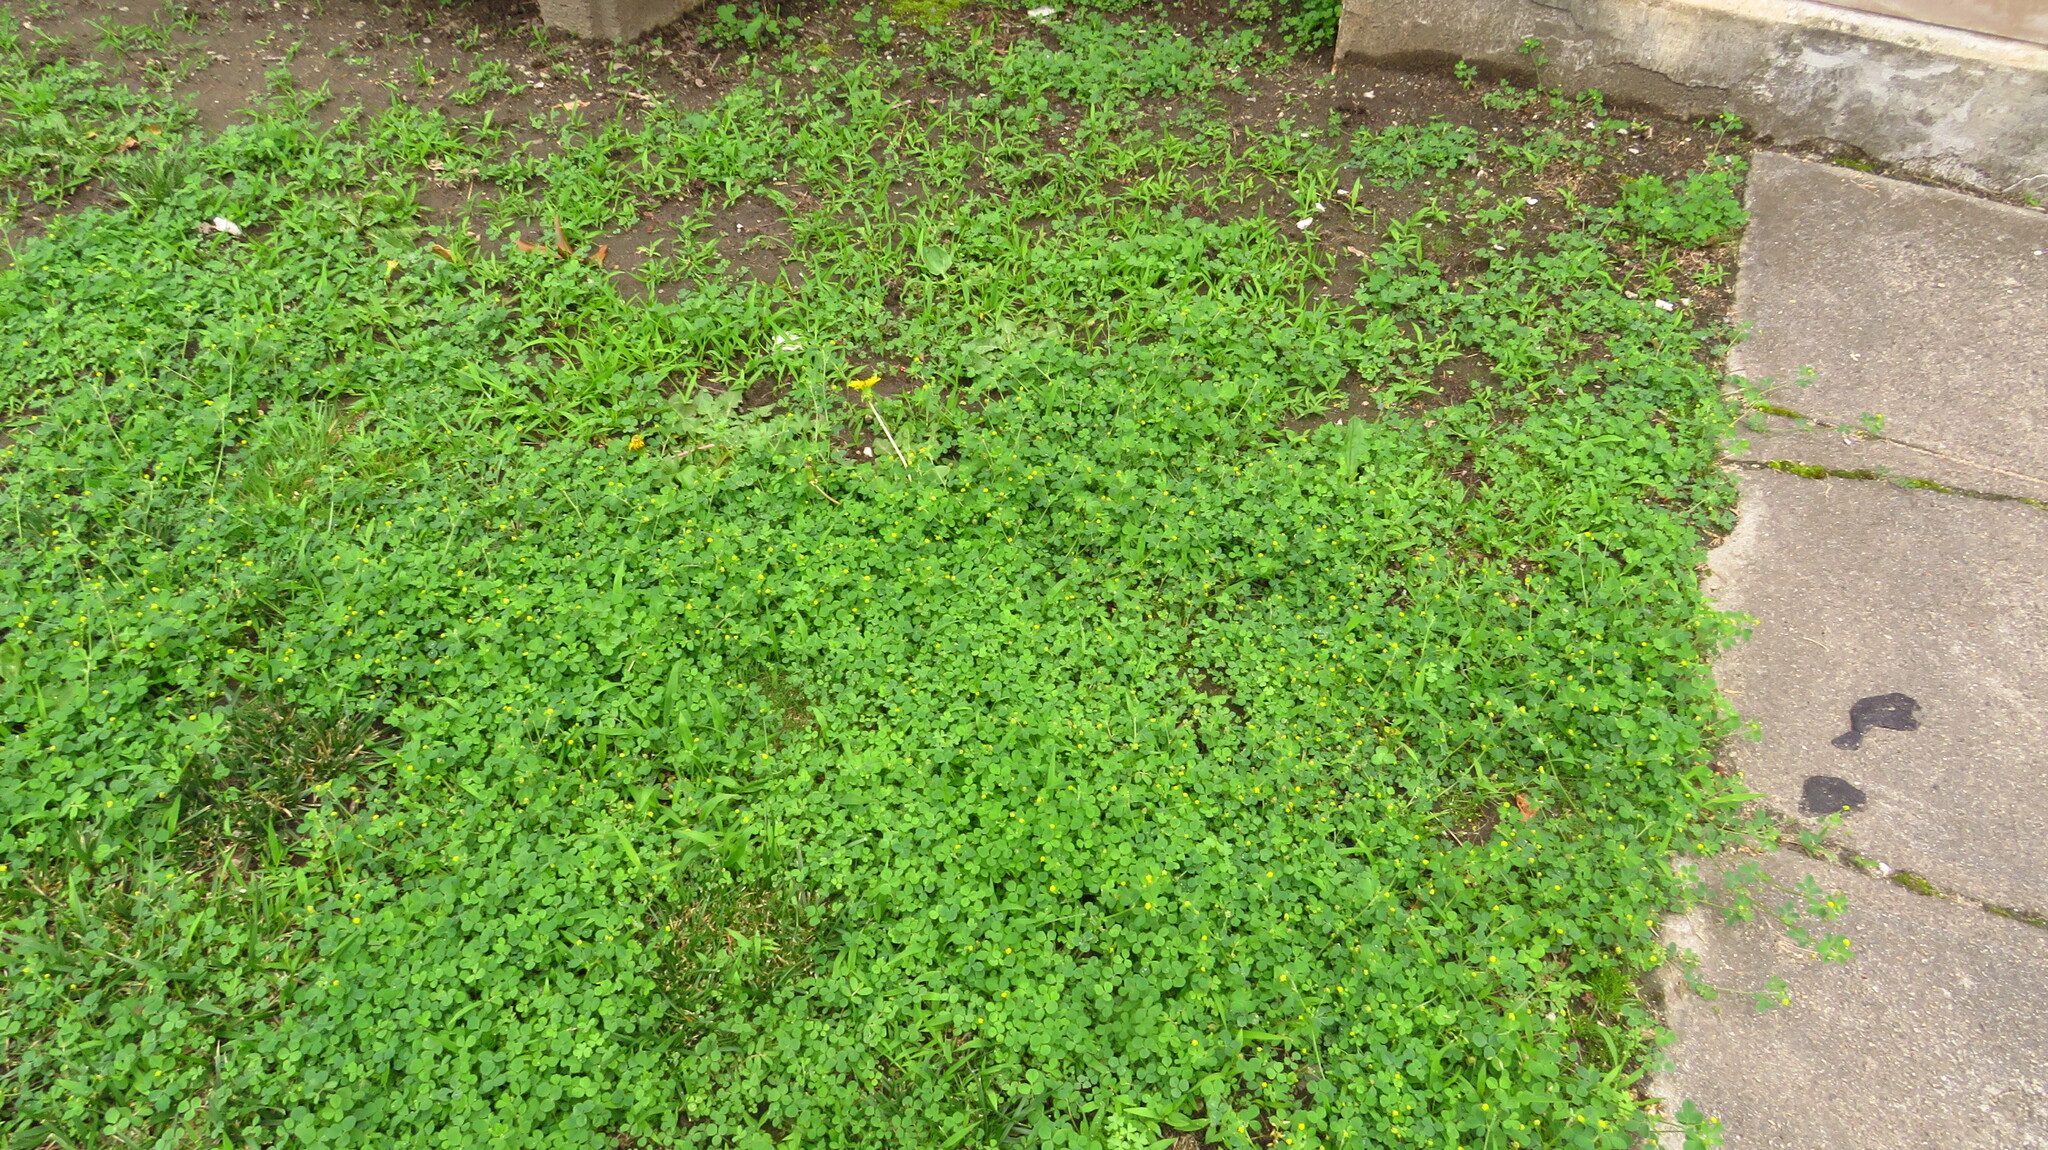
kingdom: Plantae
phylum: Tracheophyta
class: Magnoliopsida
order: Fabales
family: Fabaceae
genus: Medicago
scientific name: Medicago lupulina
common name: Black medick
